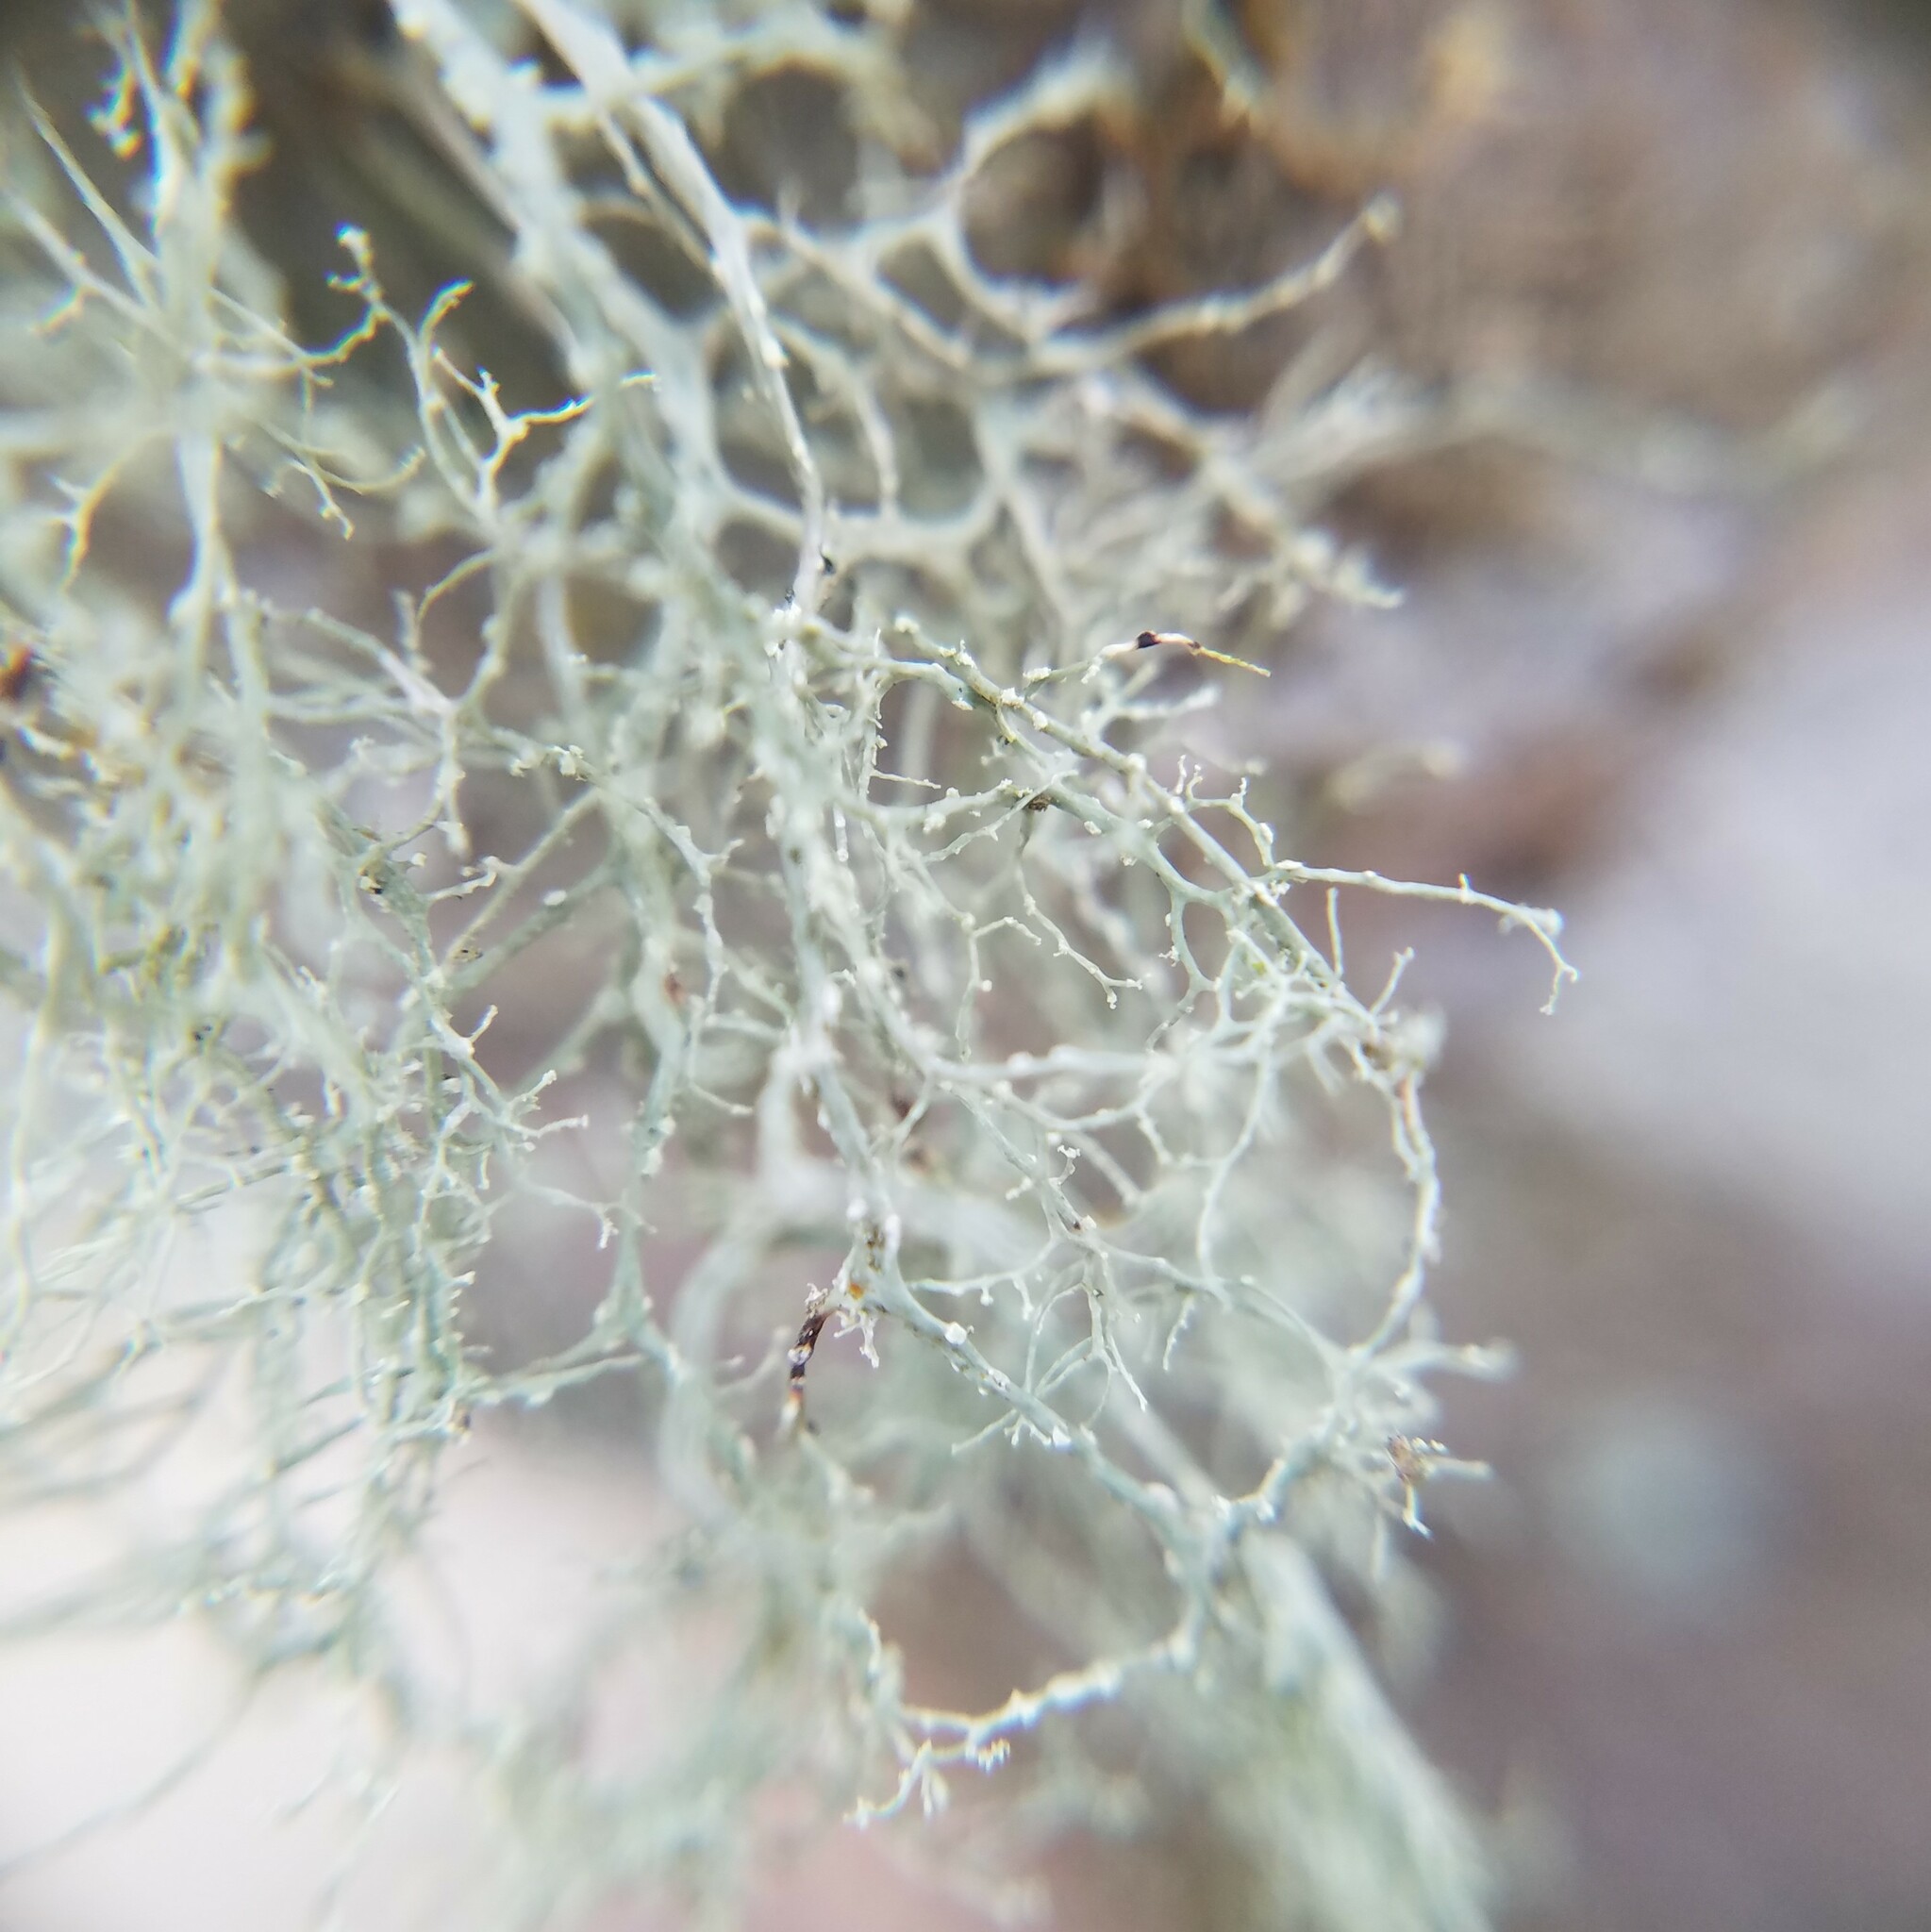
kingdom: Fungi
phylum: Ascomycota
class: Lecanoromycetes
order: Lecanorales
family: Ramalinaceae
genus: Ramalina
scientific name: Ramalina peruviana
